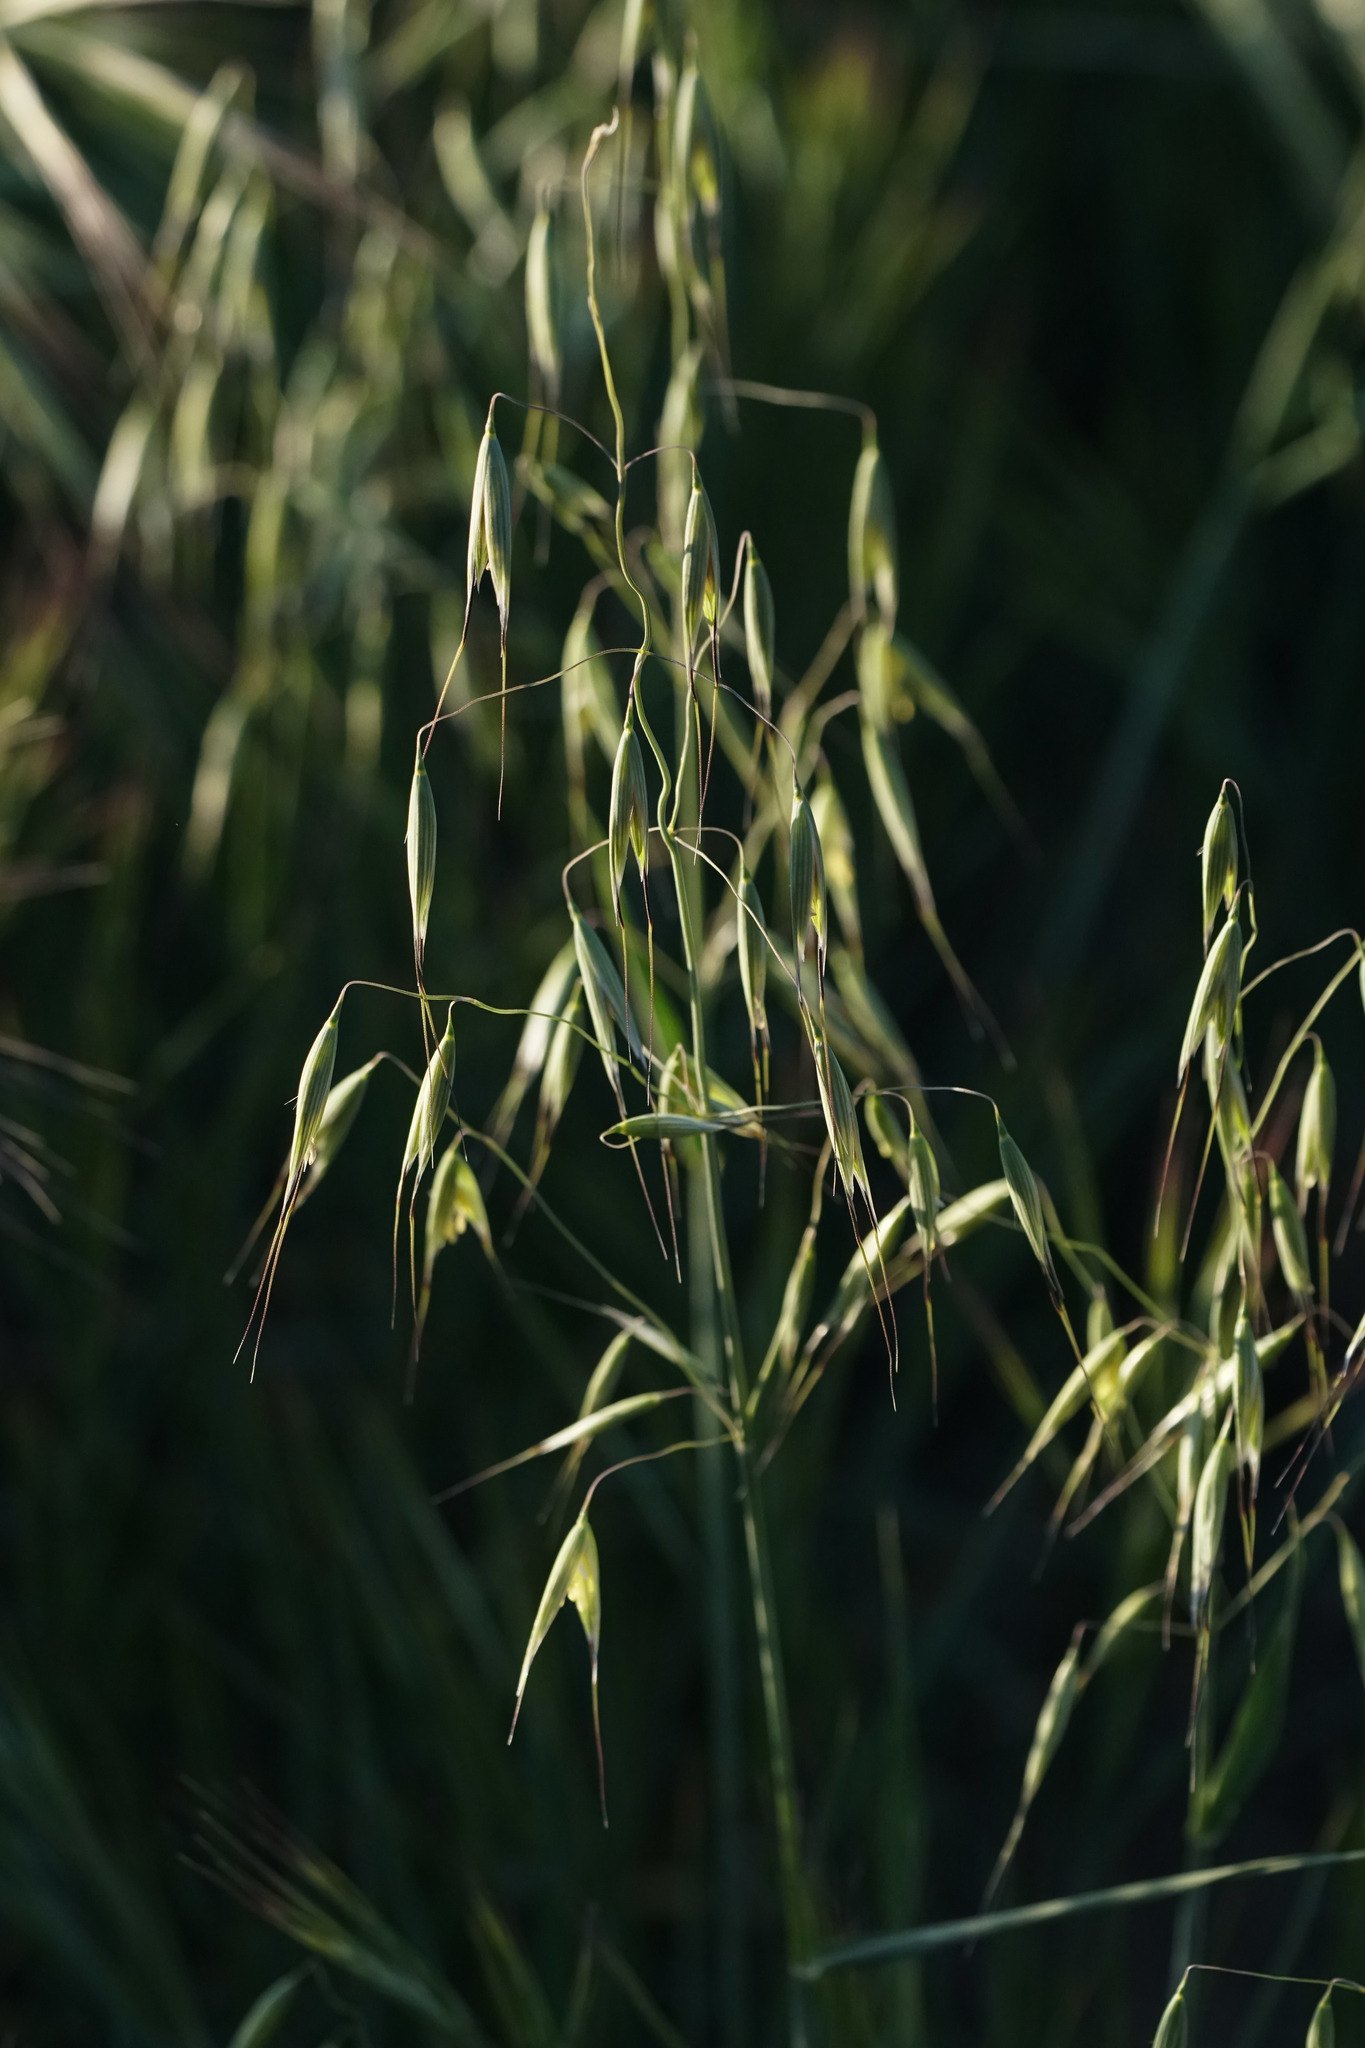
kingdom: Plantae
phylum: Tracheophyta
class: Liliopsida
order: Poales
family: Poaceae
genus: Avena
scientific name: Avena fatua
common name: Wild oat
